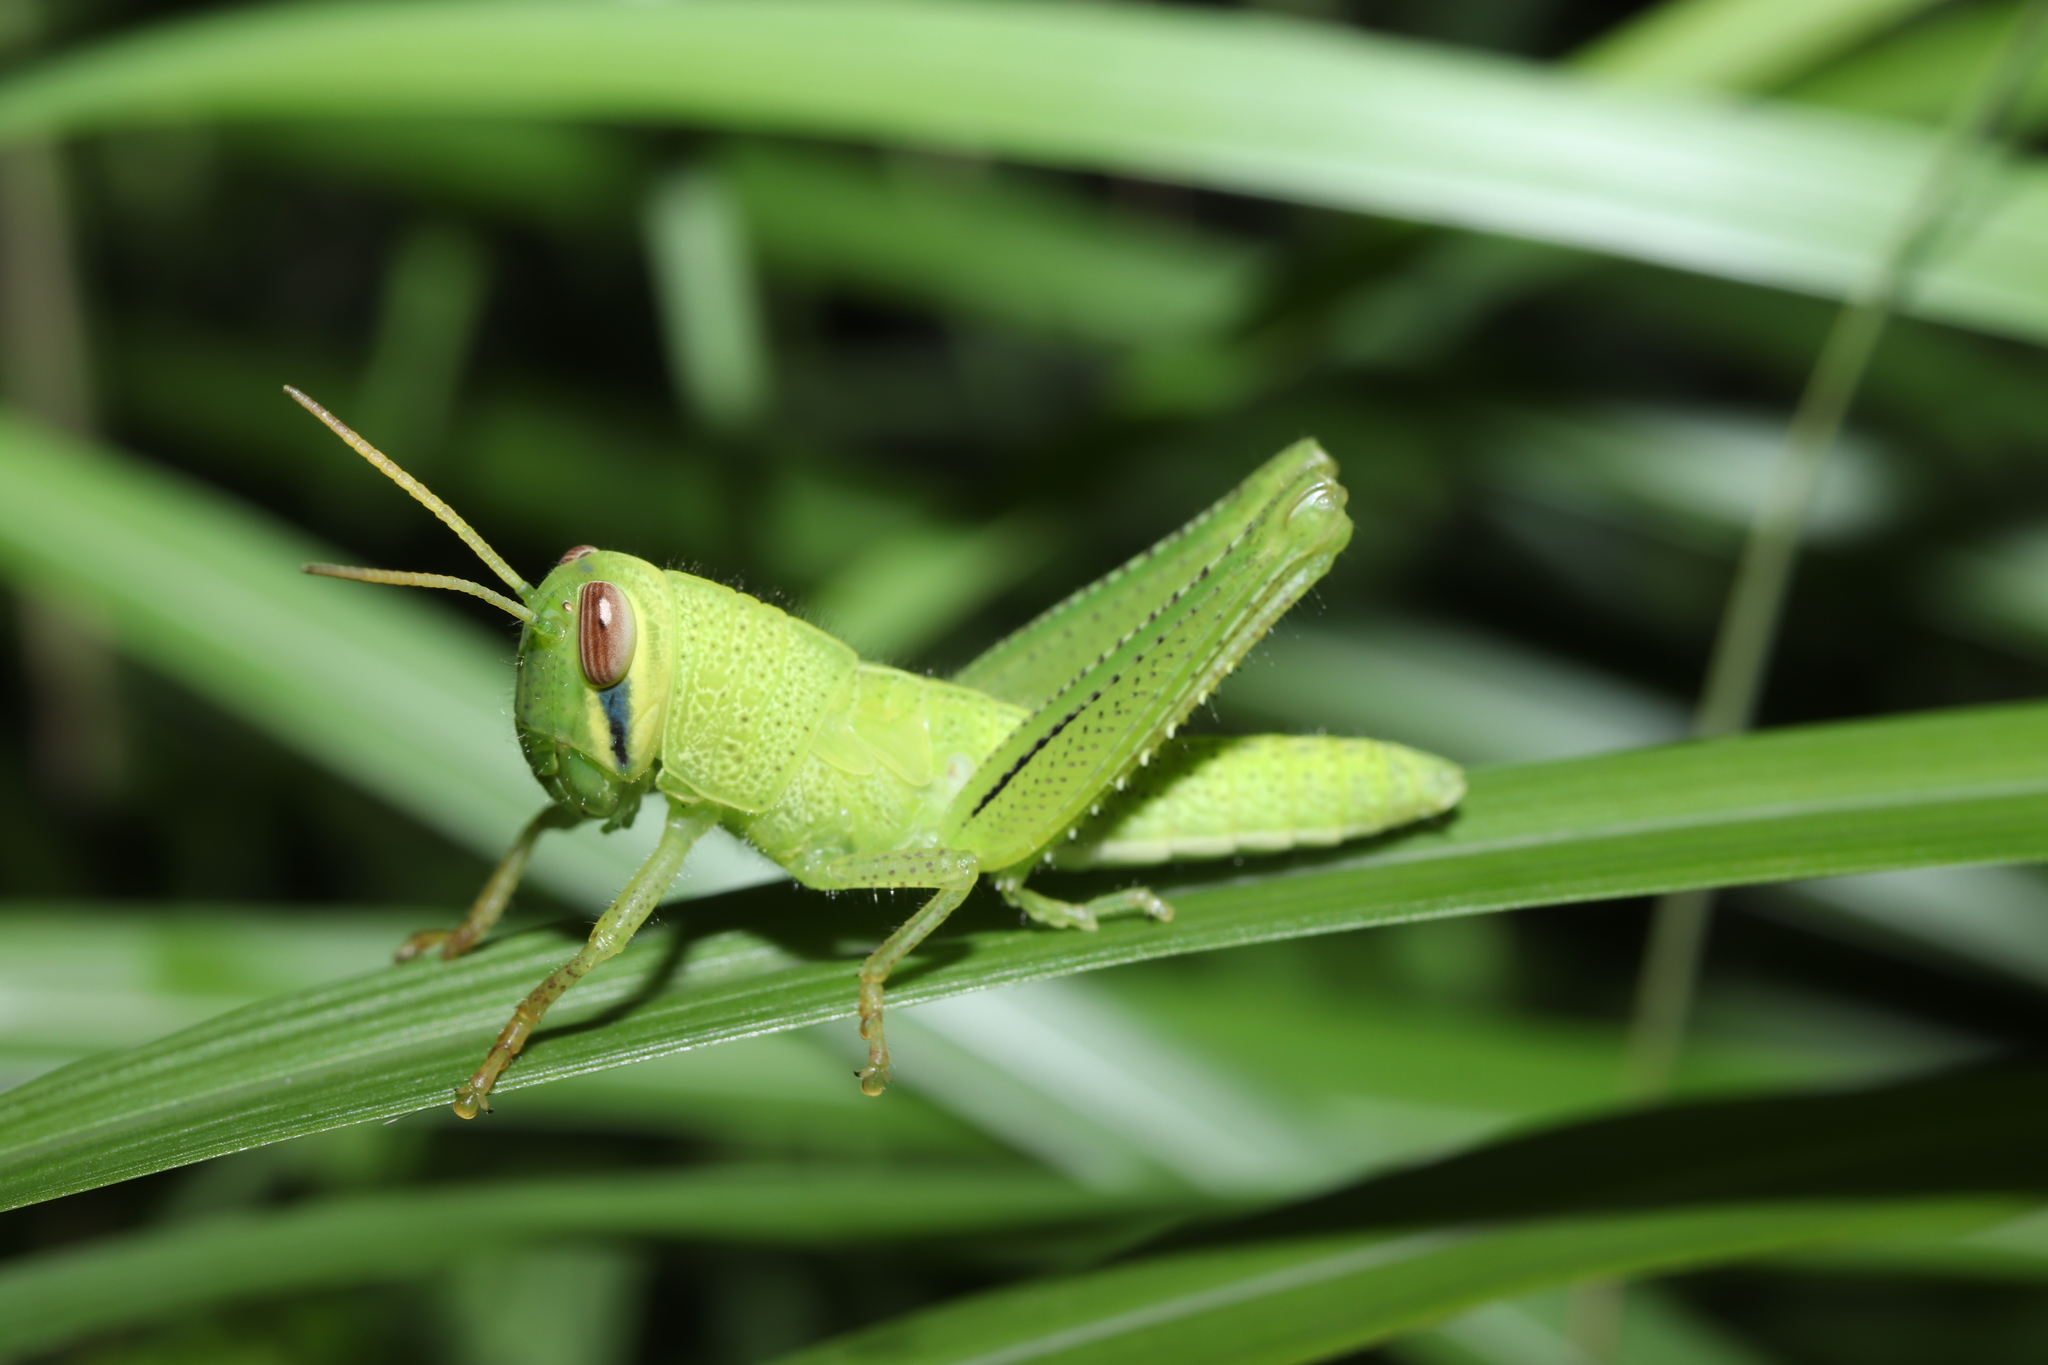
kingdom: Animalia
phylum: Arthropoda
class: Insecta
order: Orthoptera
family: Acrididae
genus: Patanga
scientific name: Patanga japonica
